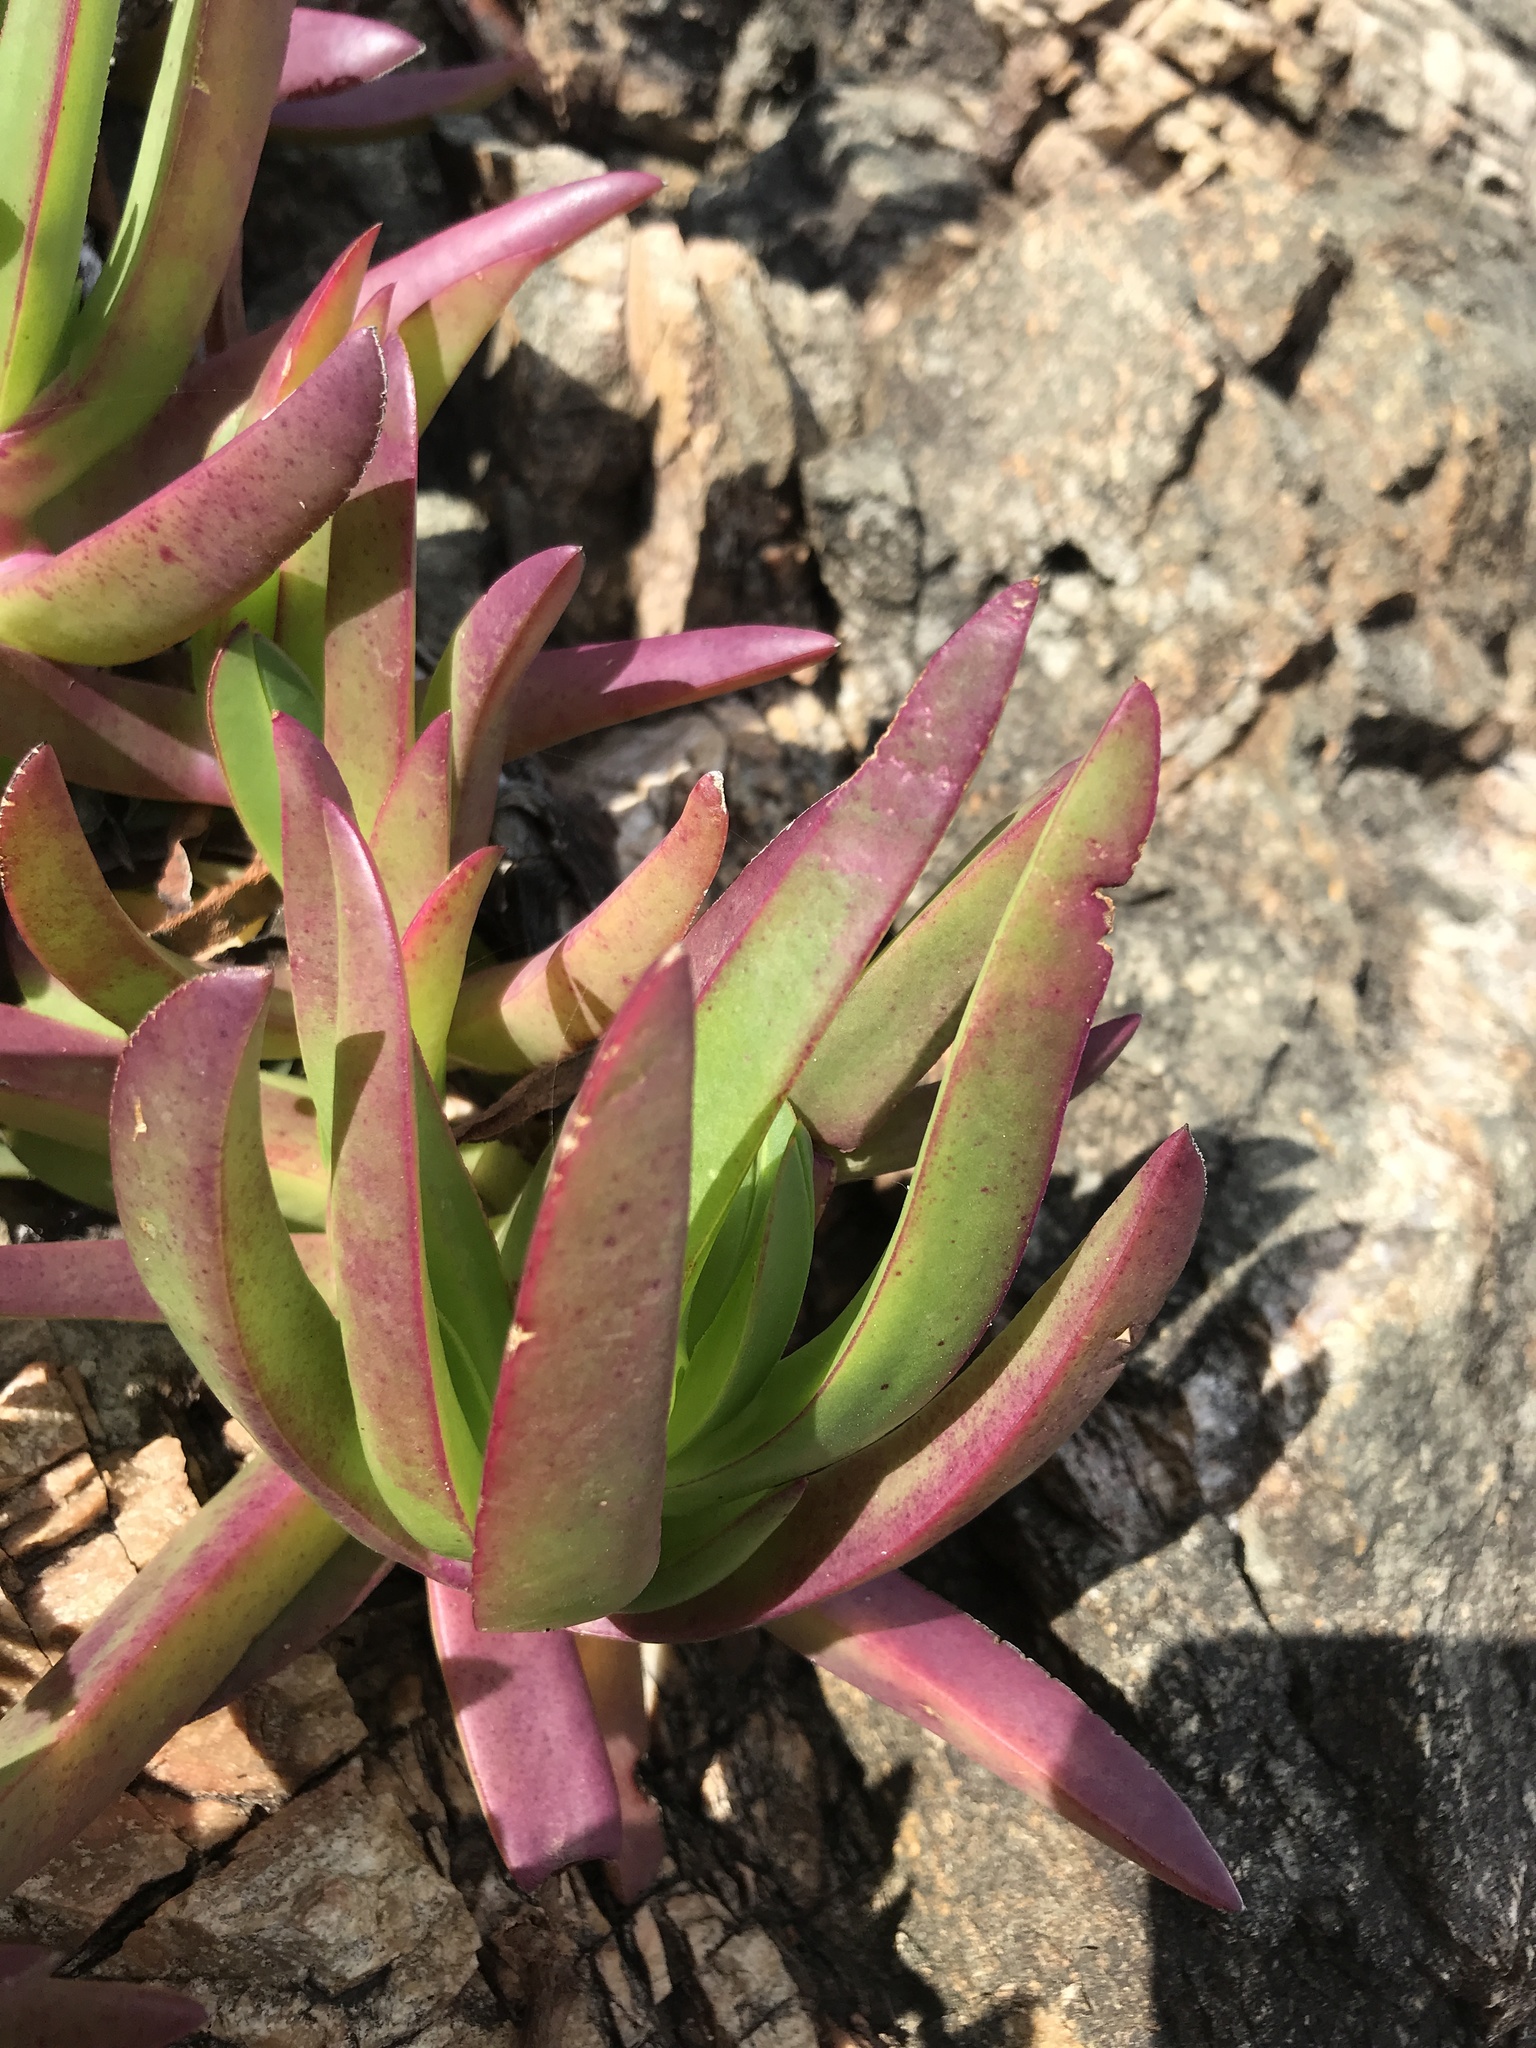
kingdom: Plantae
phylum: Tracheophyta
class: Magnoliopsida
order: Caryophyllales
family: Aizoaceae
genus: Carpobrotus
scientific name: Carpobrotus edulis
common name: Hottentot-fig
